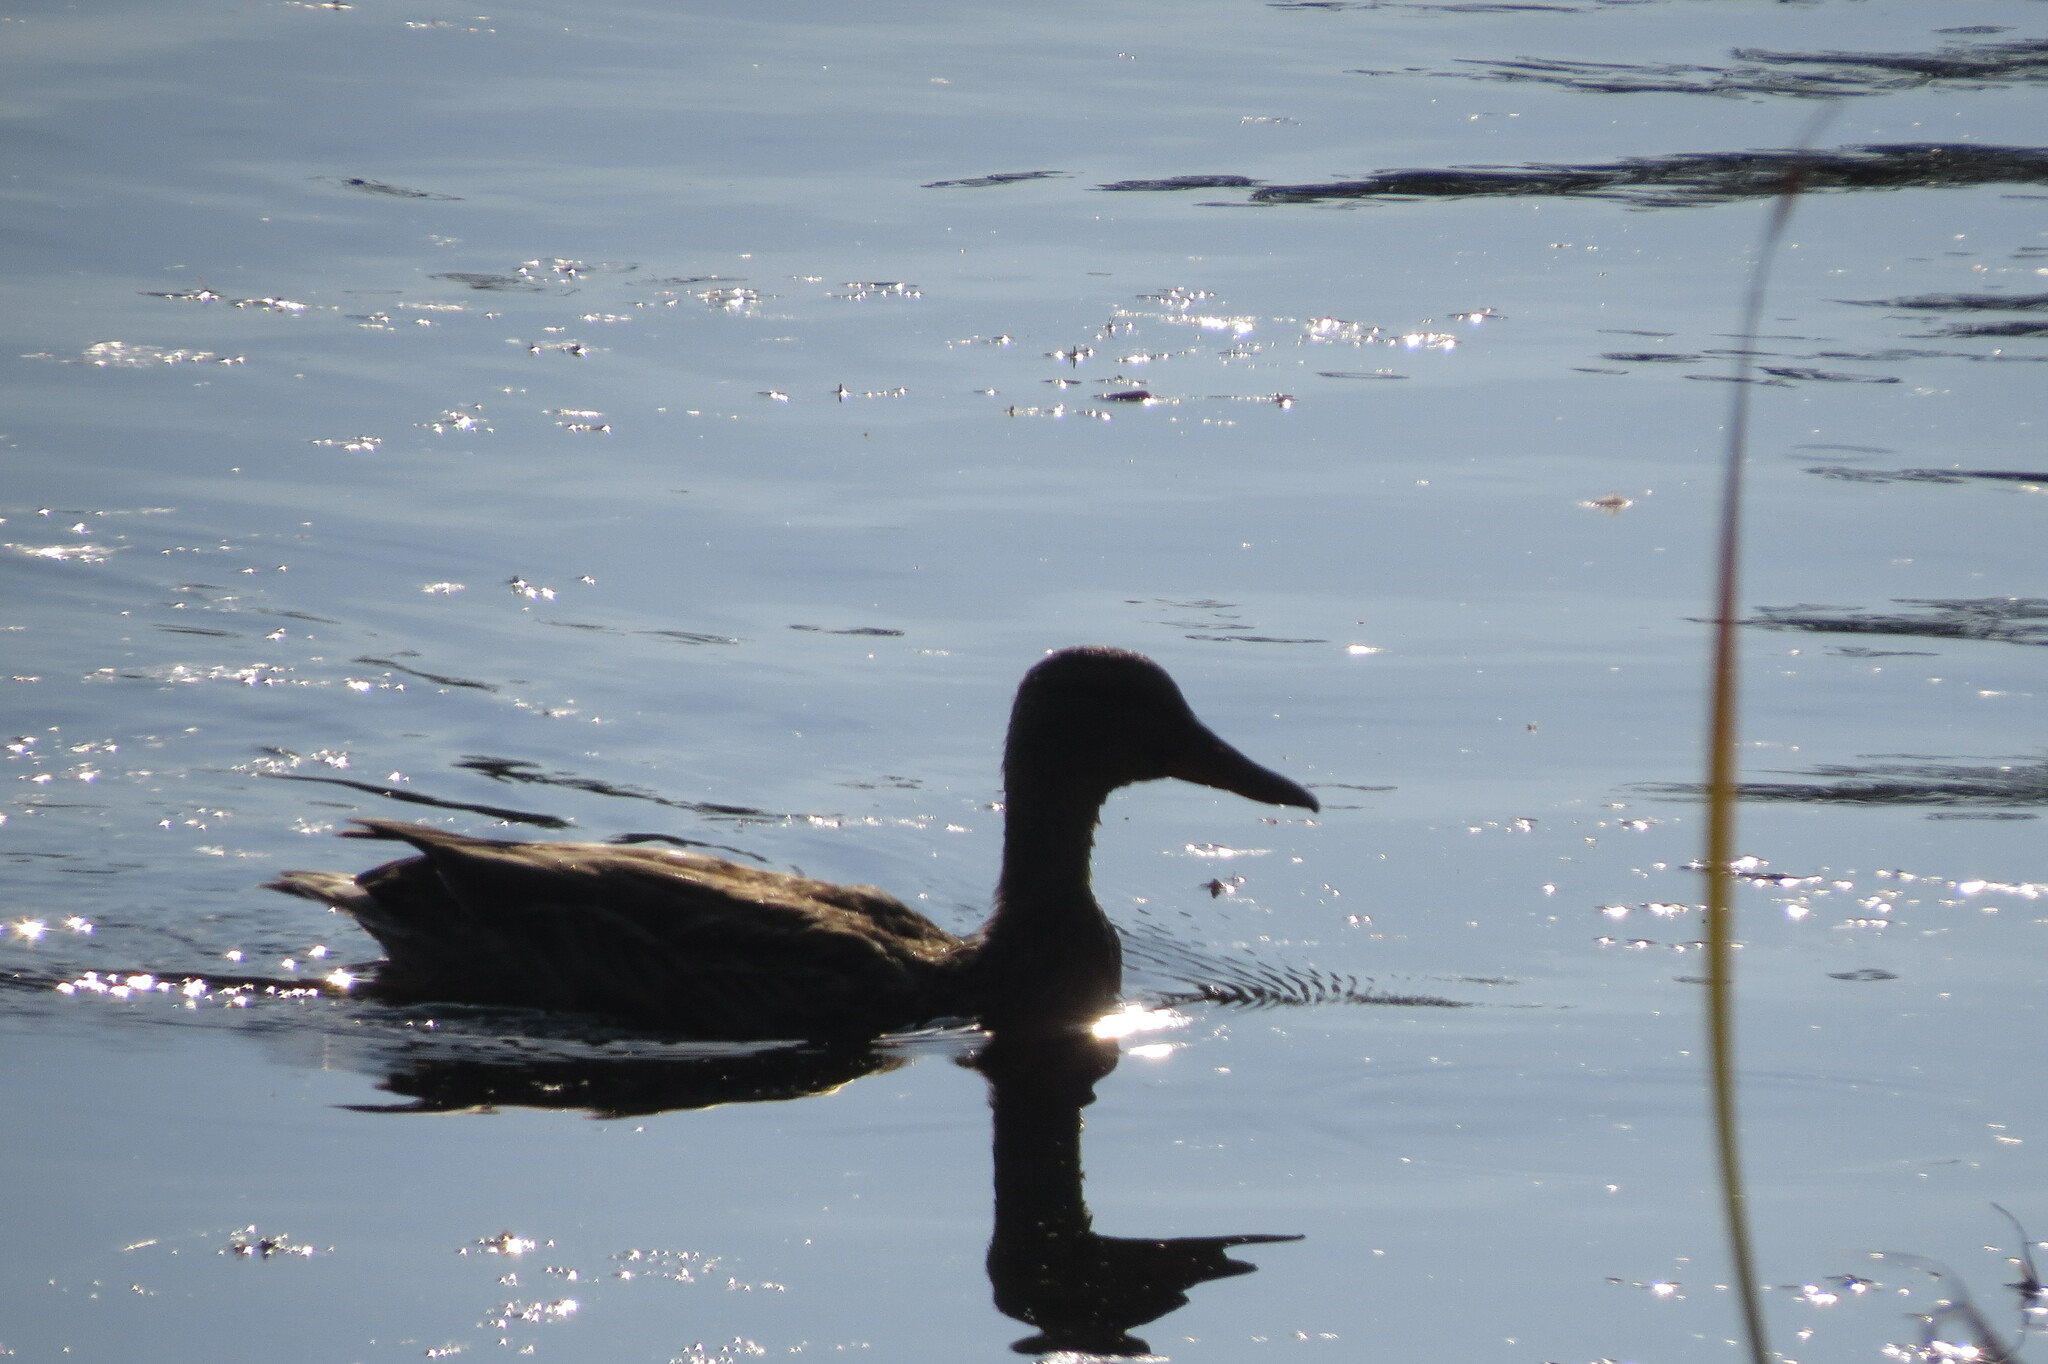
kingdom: Animalia
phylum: Chordata
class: Aves
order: Anseriformes
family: Anatidae
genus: Anas
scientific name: Anas platyrhynchos
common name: Mallard
